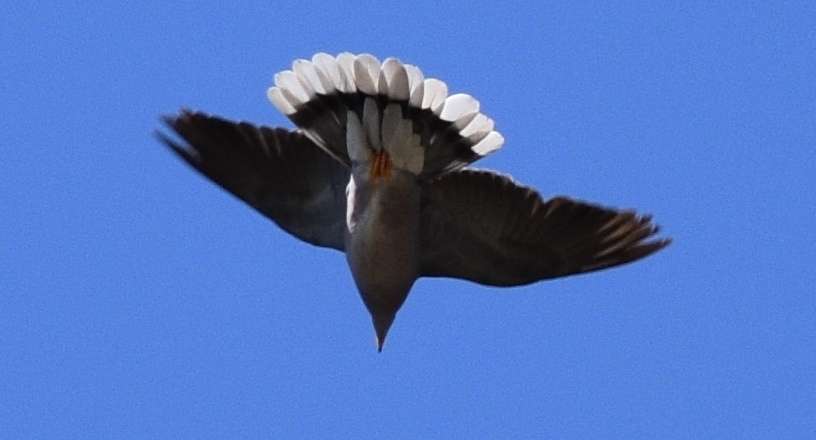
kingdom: Animalia
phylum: Chordata
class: Aves
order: Columbiformes
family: Columbidae
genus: Patagioenas
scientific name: Patagioenas fasciata
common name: Band-tailed pigeon
